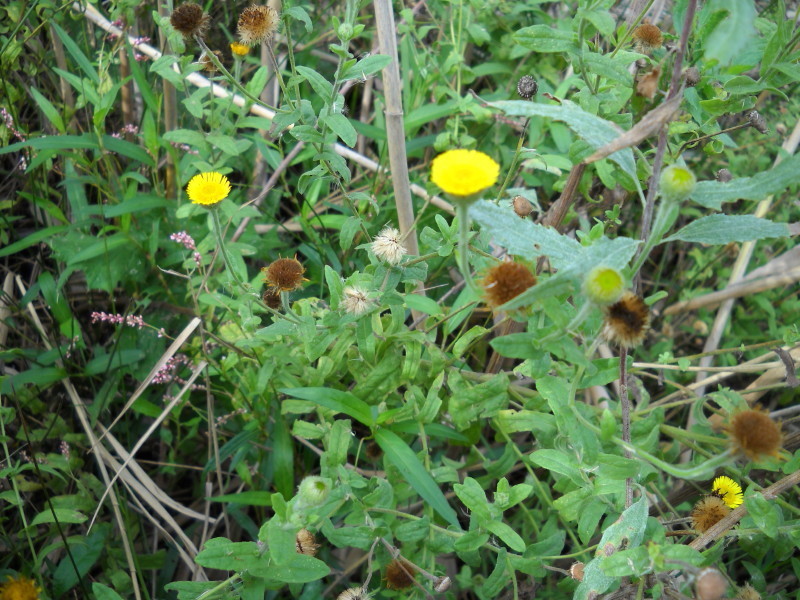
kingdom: Plantae
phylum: Tracheophyta
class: Magnoliopsida
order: Asterales
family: Asteraceae
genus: Pulicaria
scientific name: Pulicaria scabra
